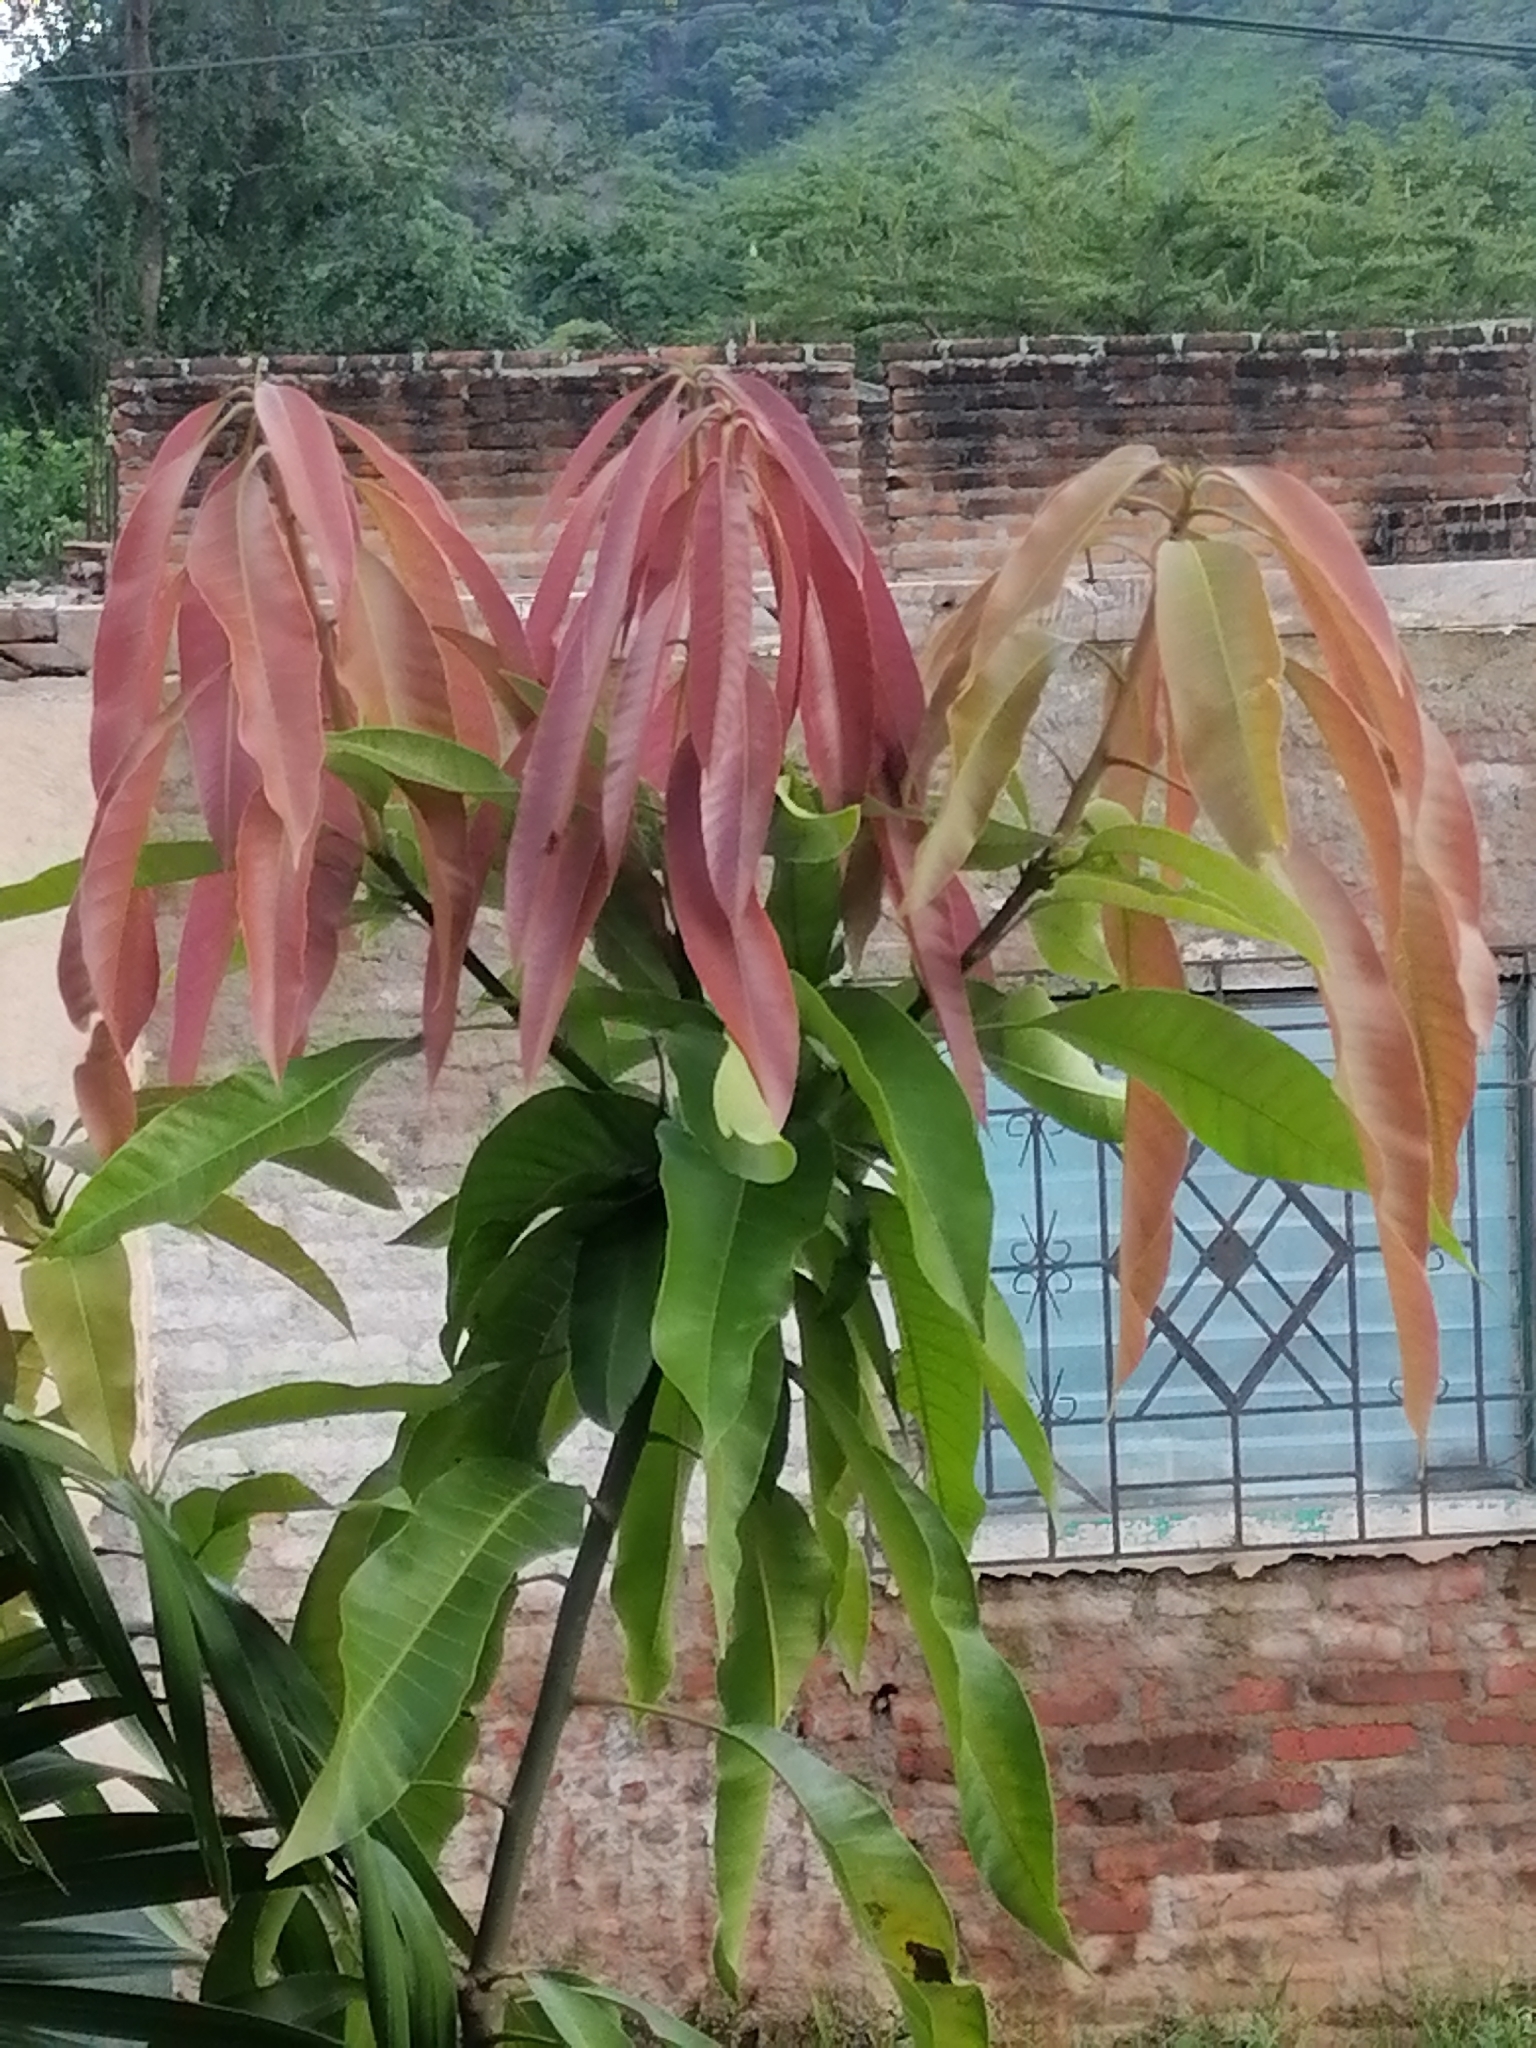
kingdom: Plantae
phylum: Tracheophyta
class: Magnoliopsida
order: Sapindales
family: Anacardiaceae
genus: Mangifera
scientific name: Mangifera indica
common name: Mango
